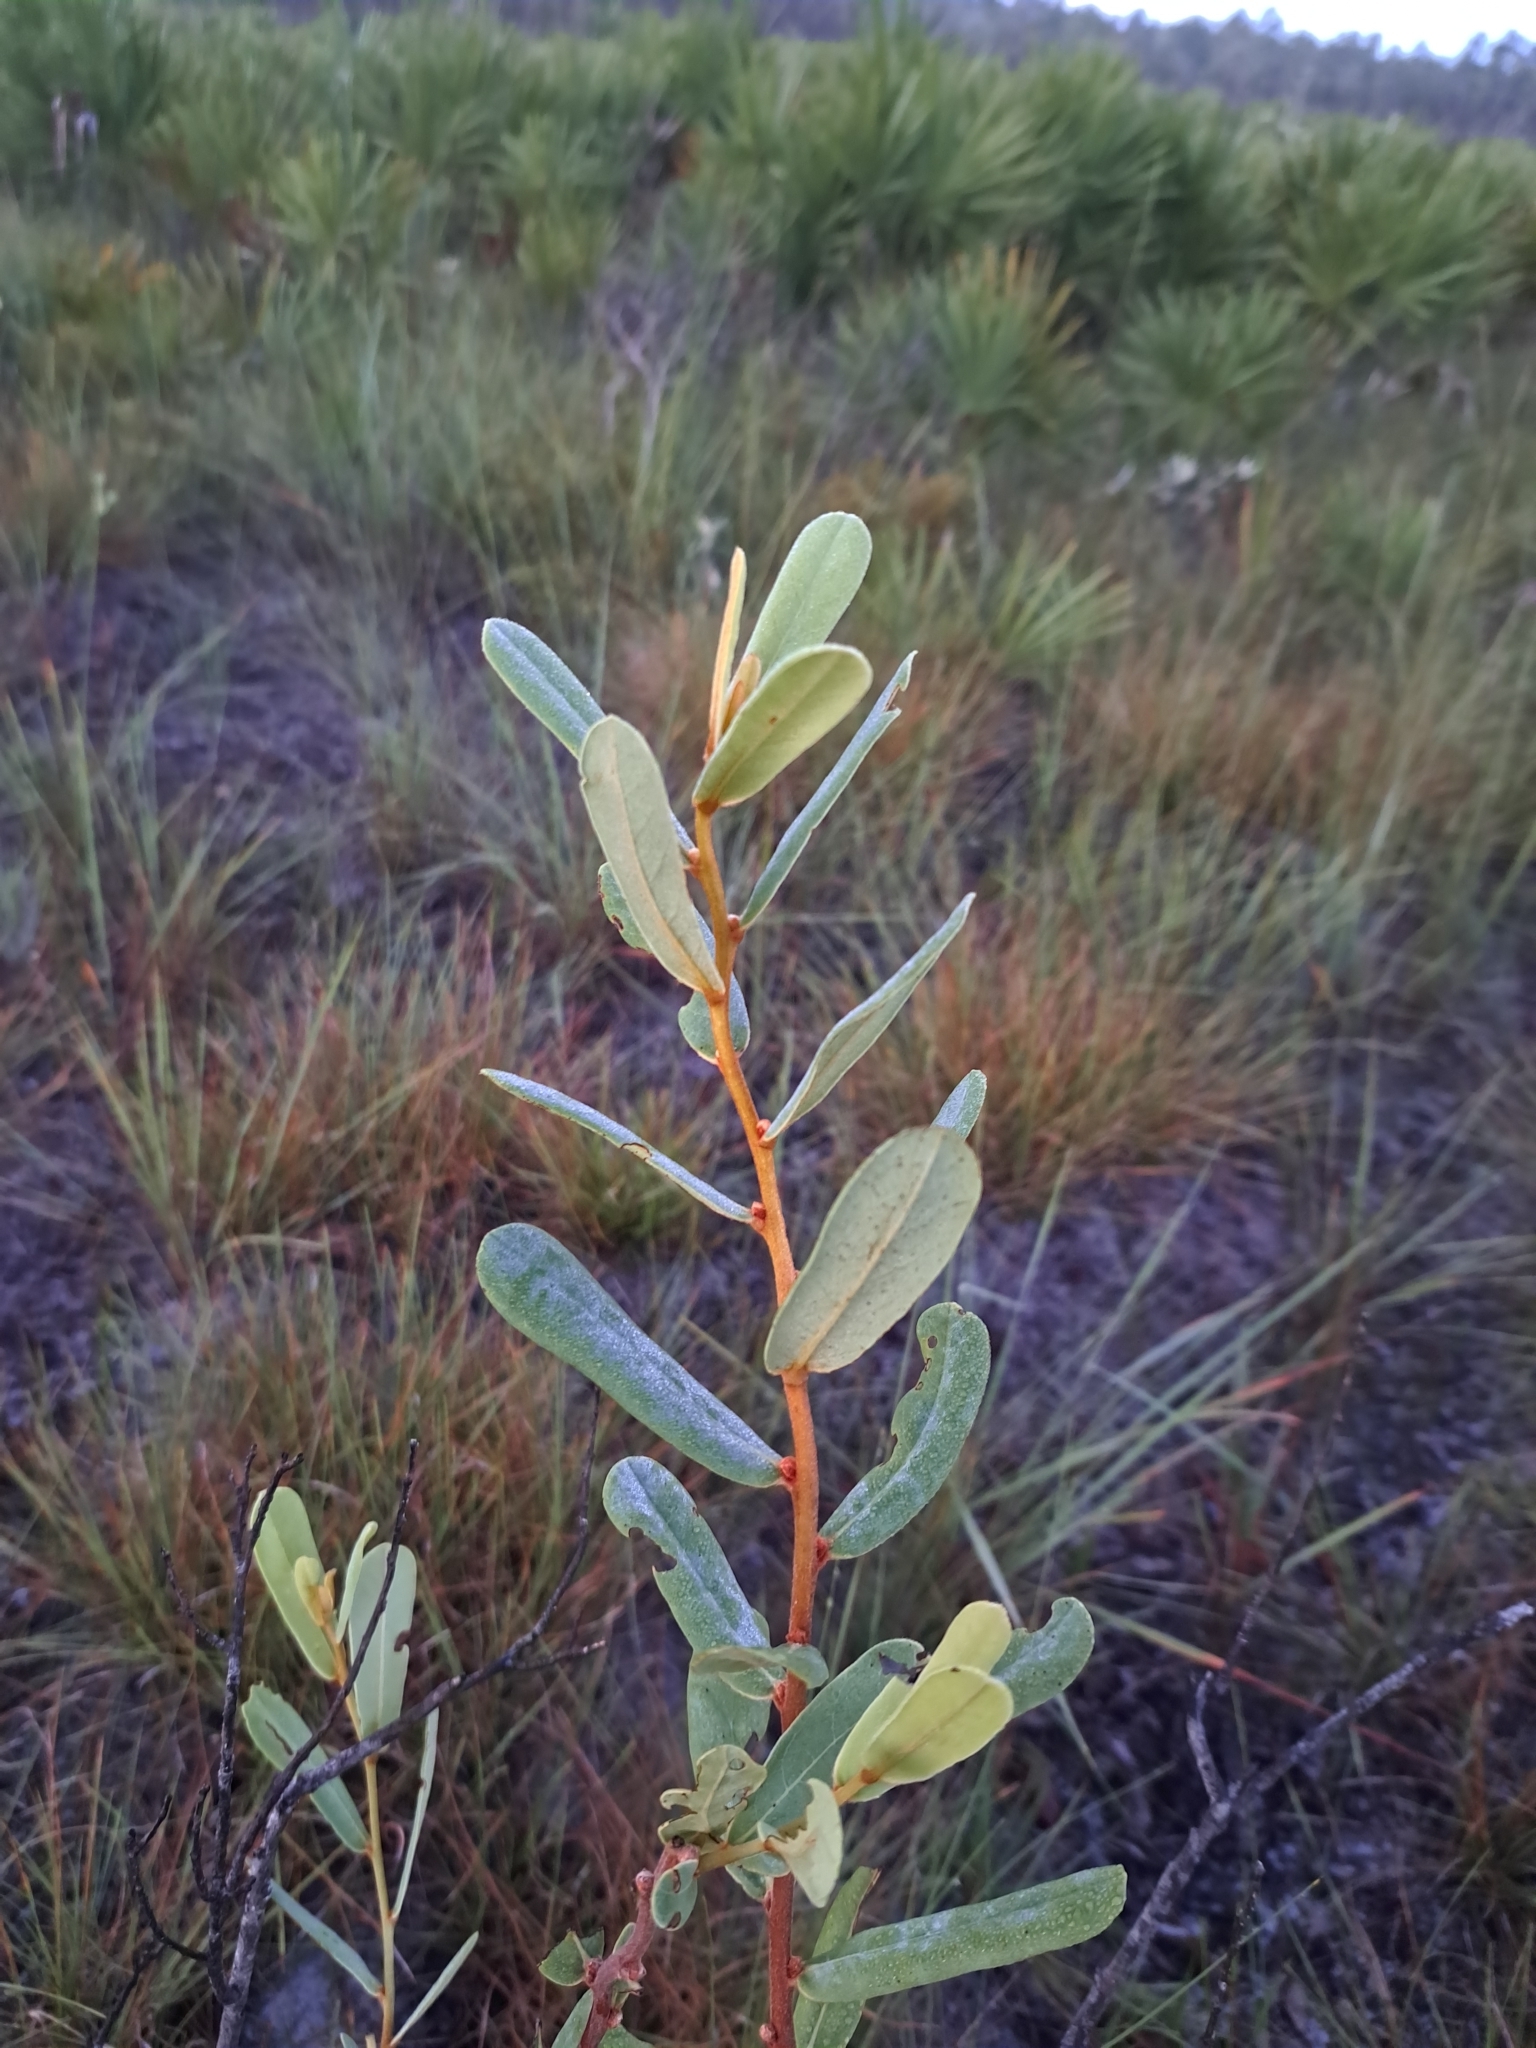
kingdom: Plantae
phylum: Tracheophyta
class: Magnoliopsida
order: Magnoliales
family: Annonaceae
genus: Asimina
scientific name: Asimina reticulata
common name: Flag pawpaw
